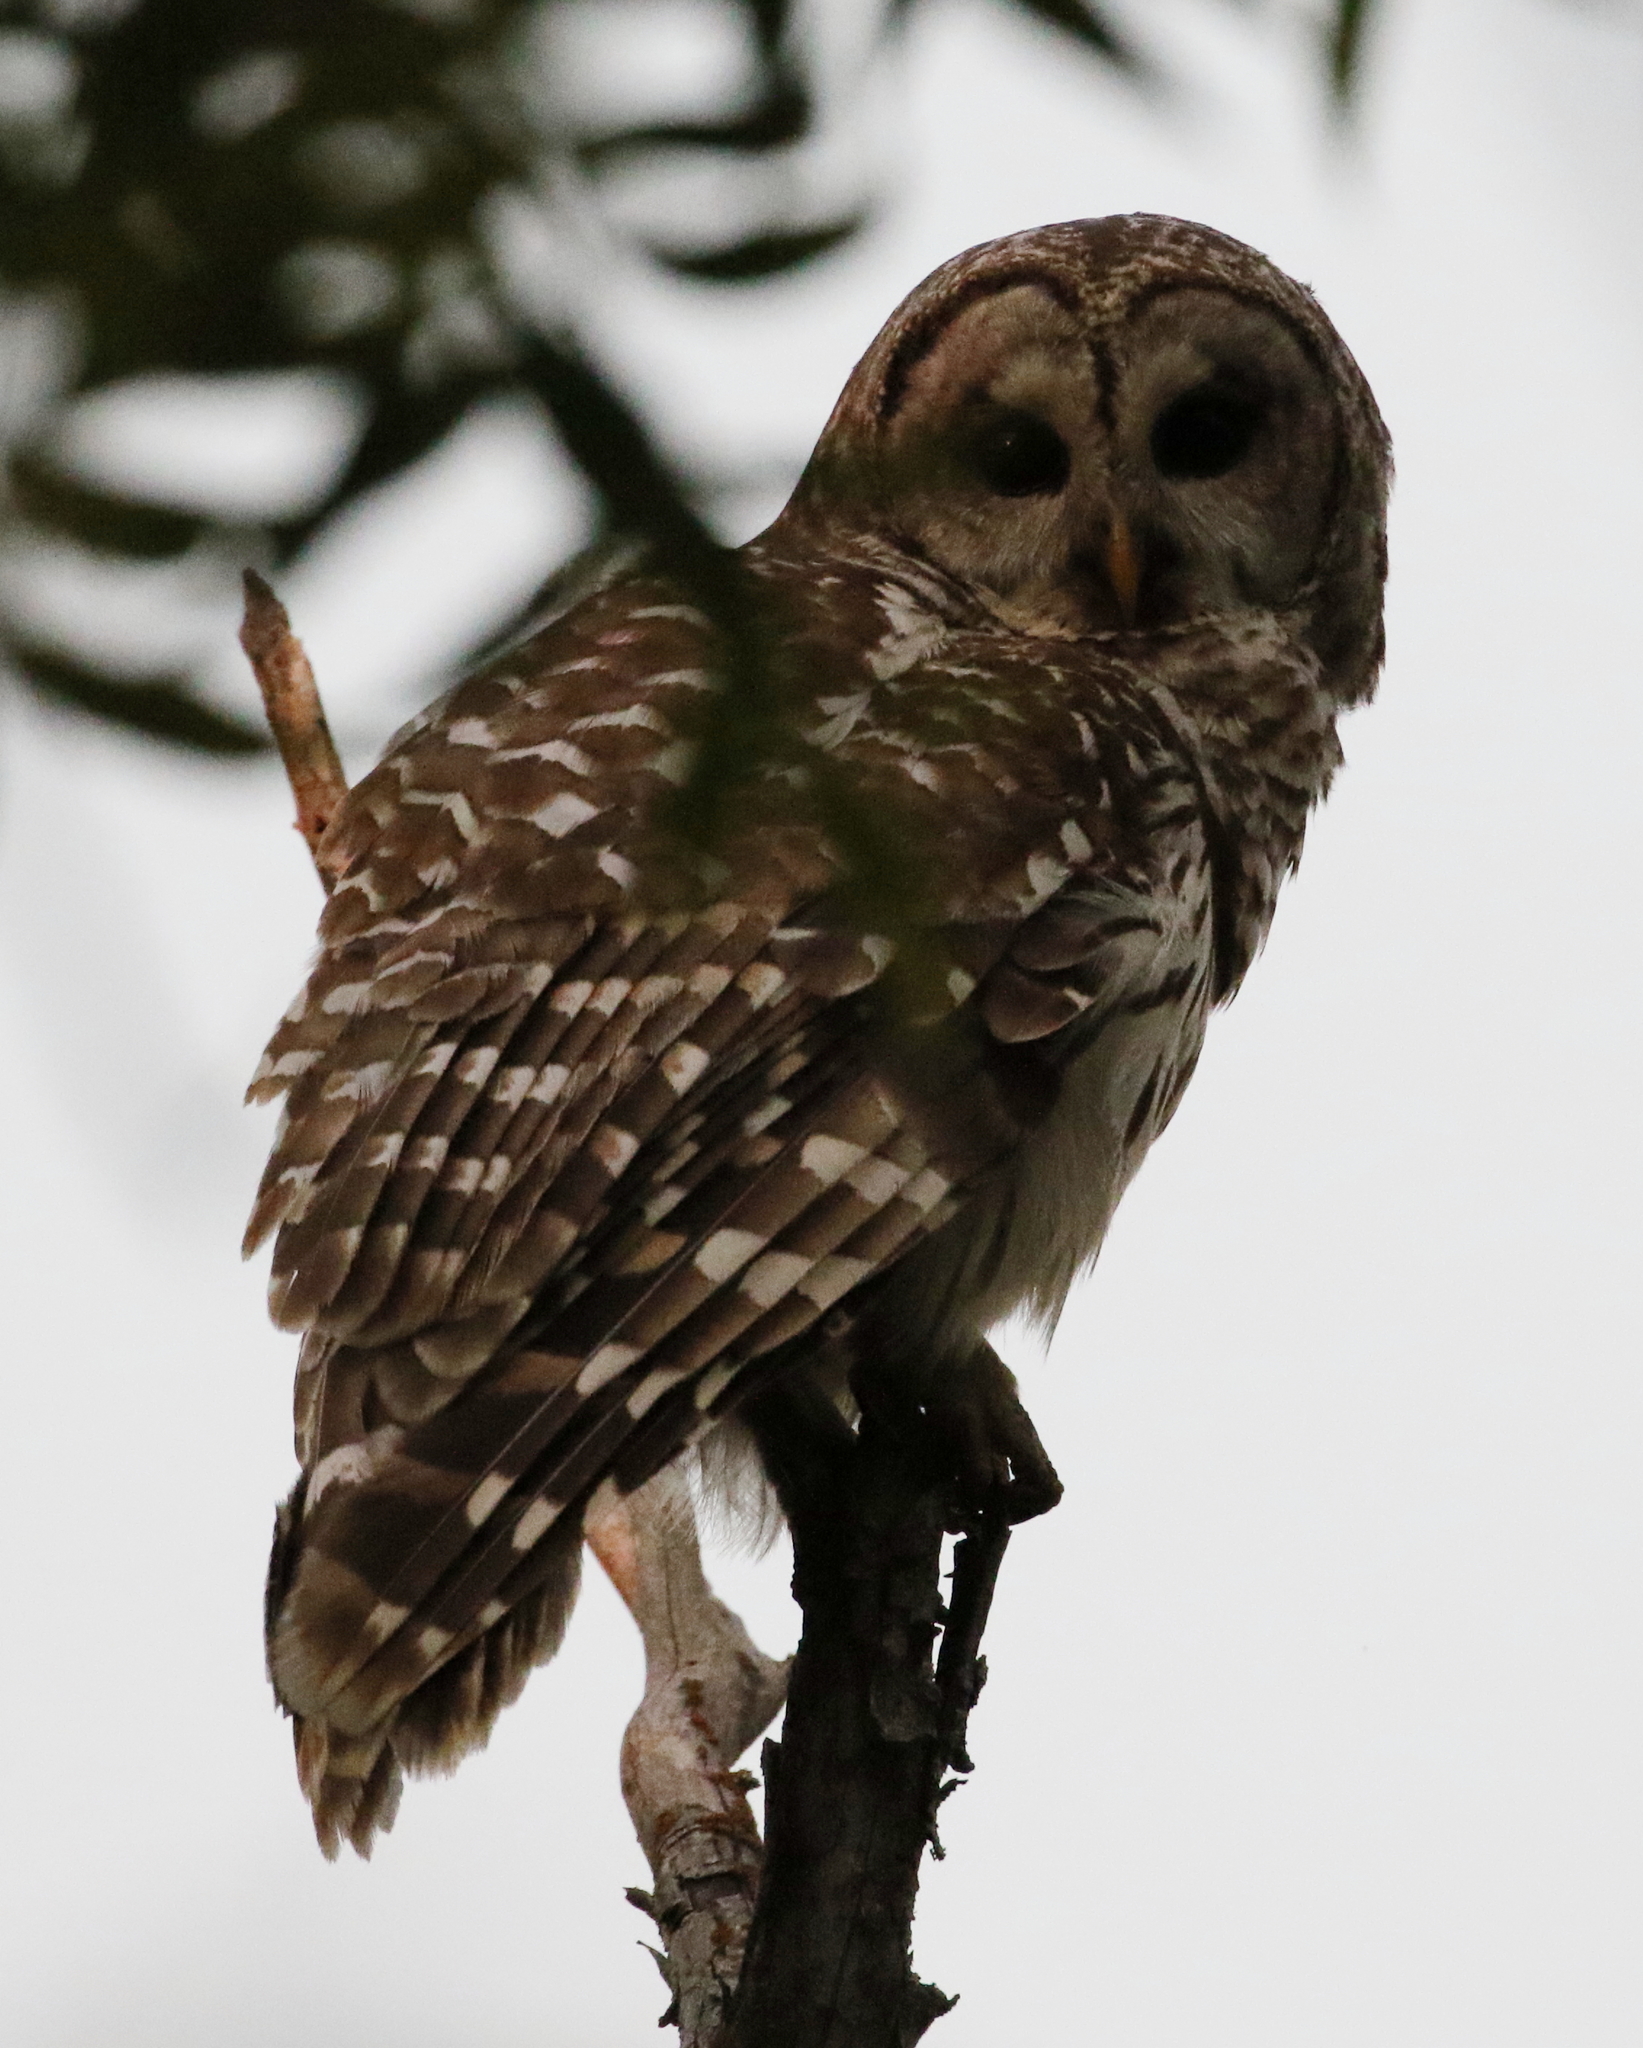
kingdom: Animalia
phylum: Chordata
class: Aves
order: Strigiformes
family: Strigidae
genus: Strix
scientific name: Strix varia
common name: Barred owl
